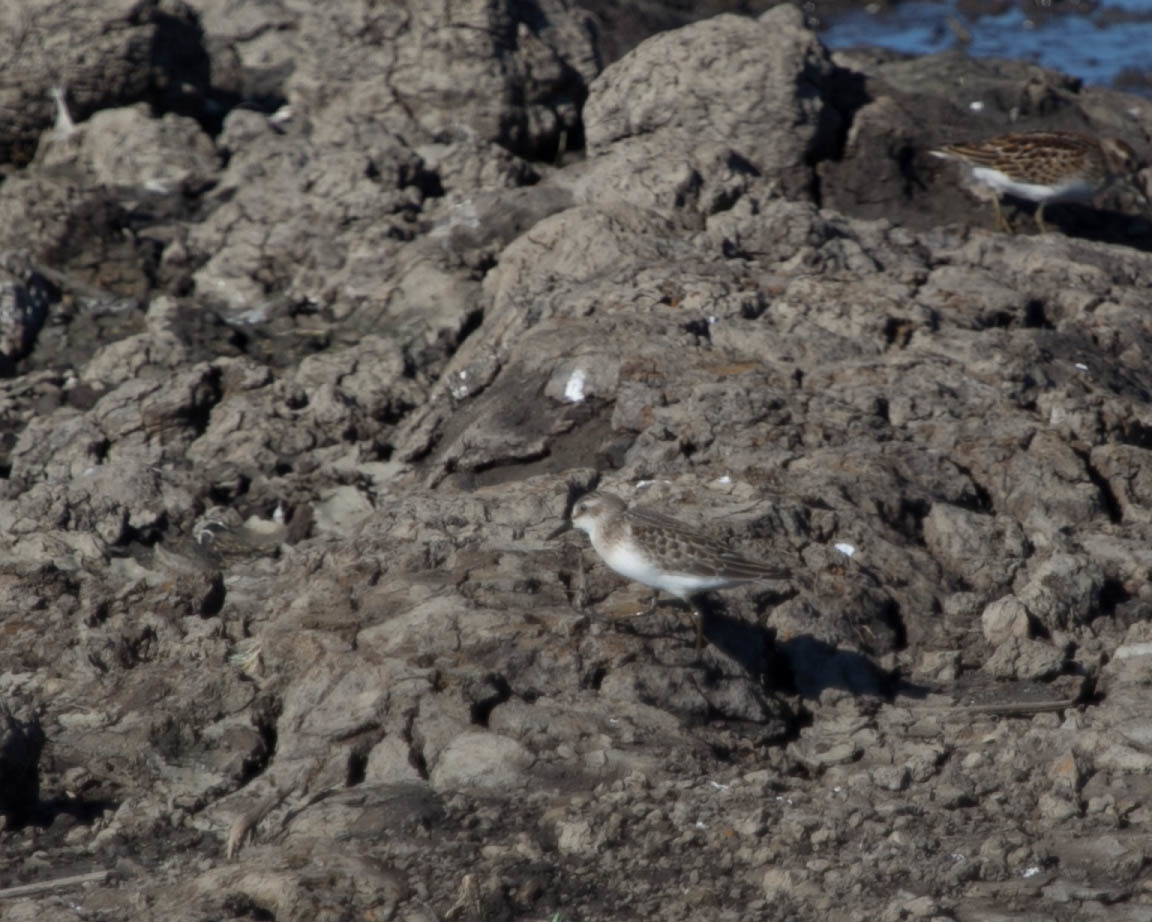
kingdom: Animalia
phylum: Chordata
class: Aves
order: Charadriiformes
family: Scolopacidae
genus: Calidris
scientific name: Calidris pusilla
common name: Semipalmated sandpiper
